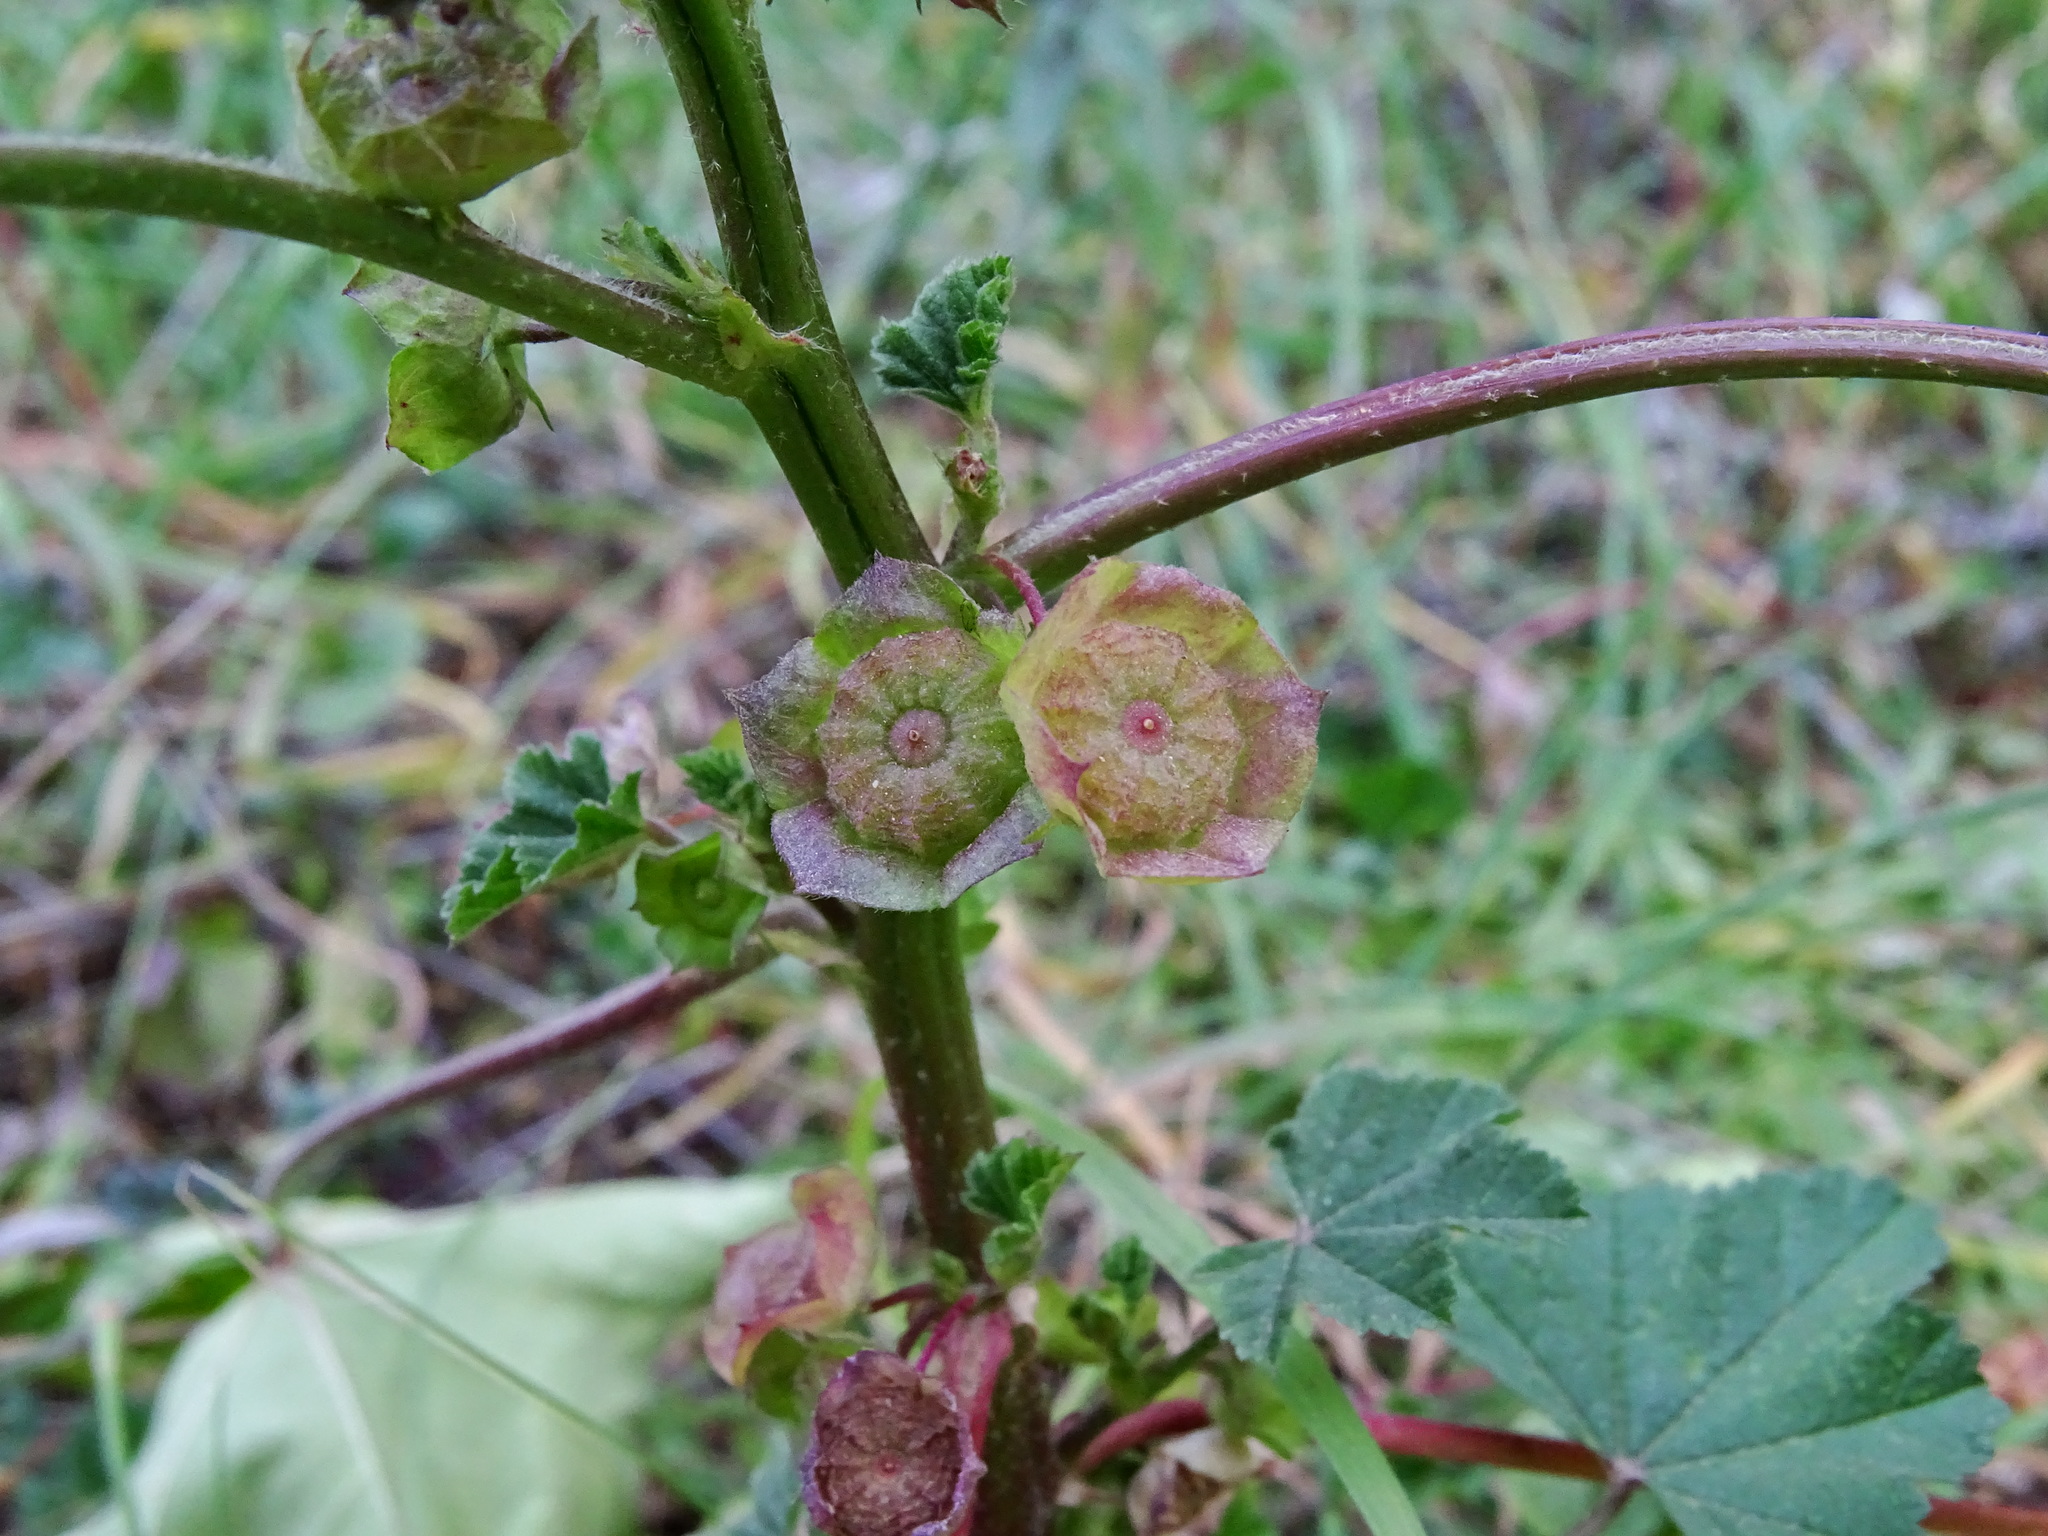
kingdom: Plantae
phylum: Tracheophyta
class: Magnoliopsida
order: Malvales
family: Malvaceae
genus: Malva
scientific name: Malva parviflora
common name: Least mallow
